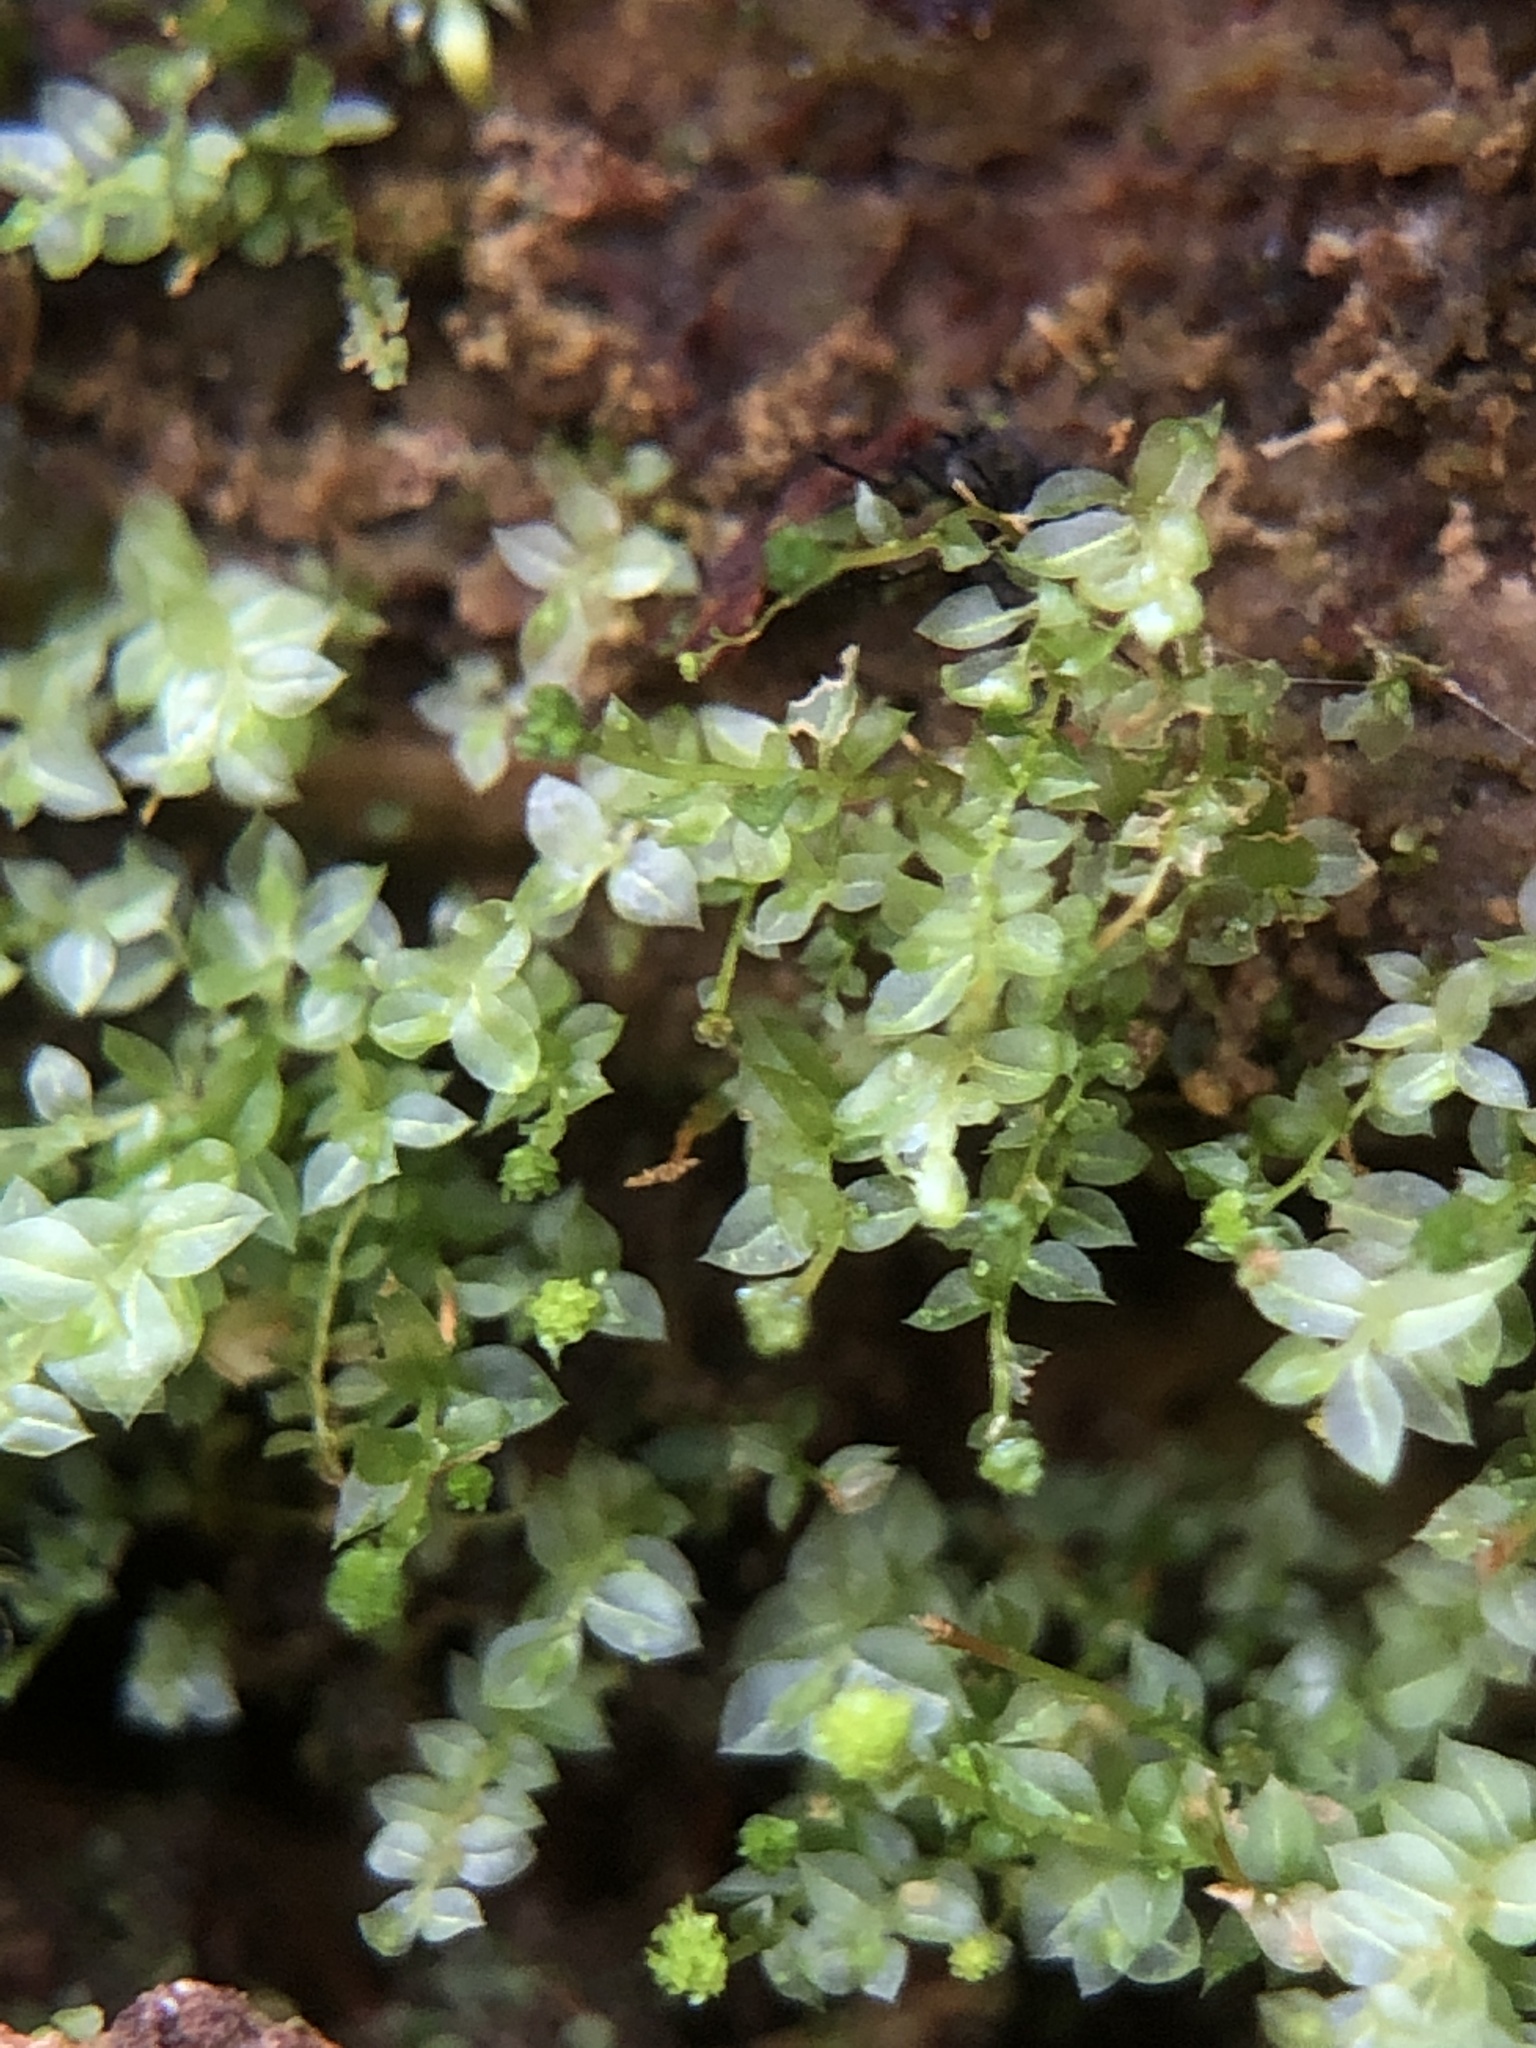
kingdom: Plantae
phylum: Bryophyta
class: Polytrichopsida
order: Tetraphidales
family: Tetraphidaceae
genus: Tetraphis
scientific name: Tetraphis pellucida
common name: Common four-toothed moss
